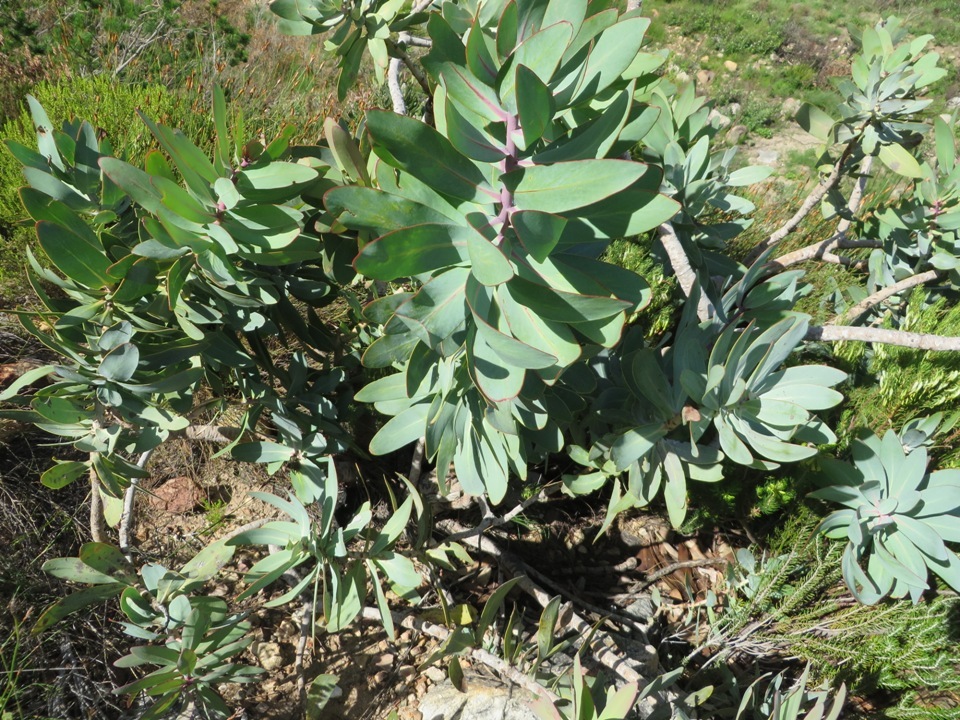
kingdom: Plantae
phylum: Tracheophyta
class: Magnoliopsida
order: Proteales
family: Proteaceae
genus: Protea
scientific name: Protea nitida
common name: Tree protea
